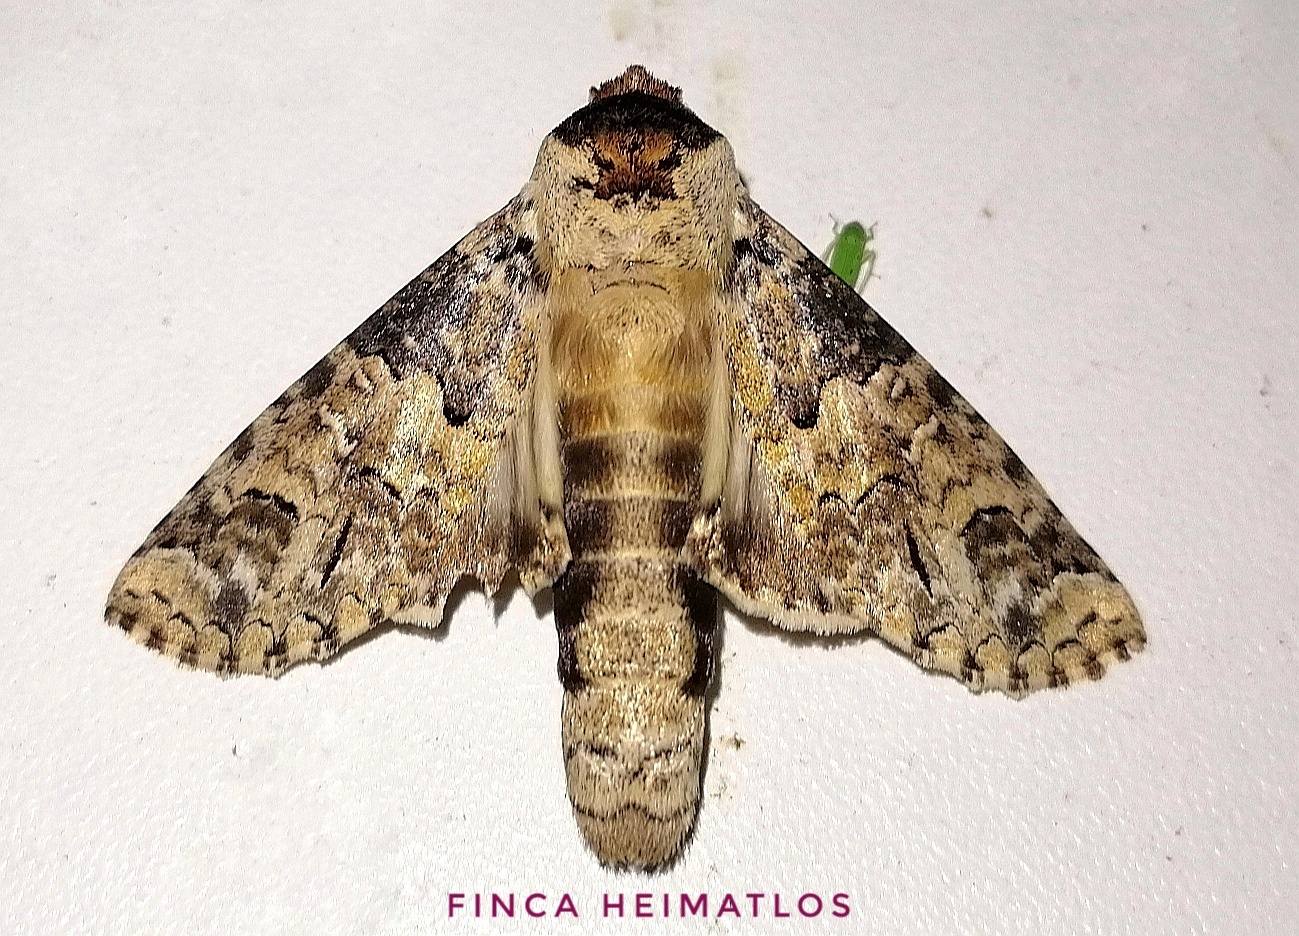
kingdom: Animalia
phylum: Arthropoda
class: Insecta
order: Lepidoptera
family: Notodontidae
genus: Sericochroa
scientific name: Sericochroa hymen
